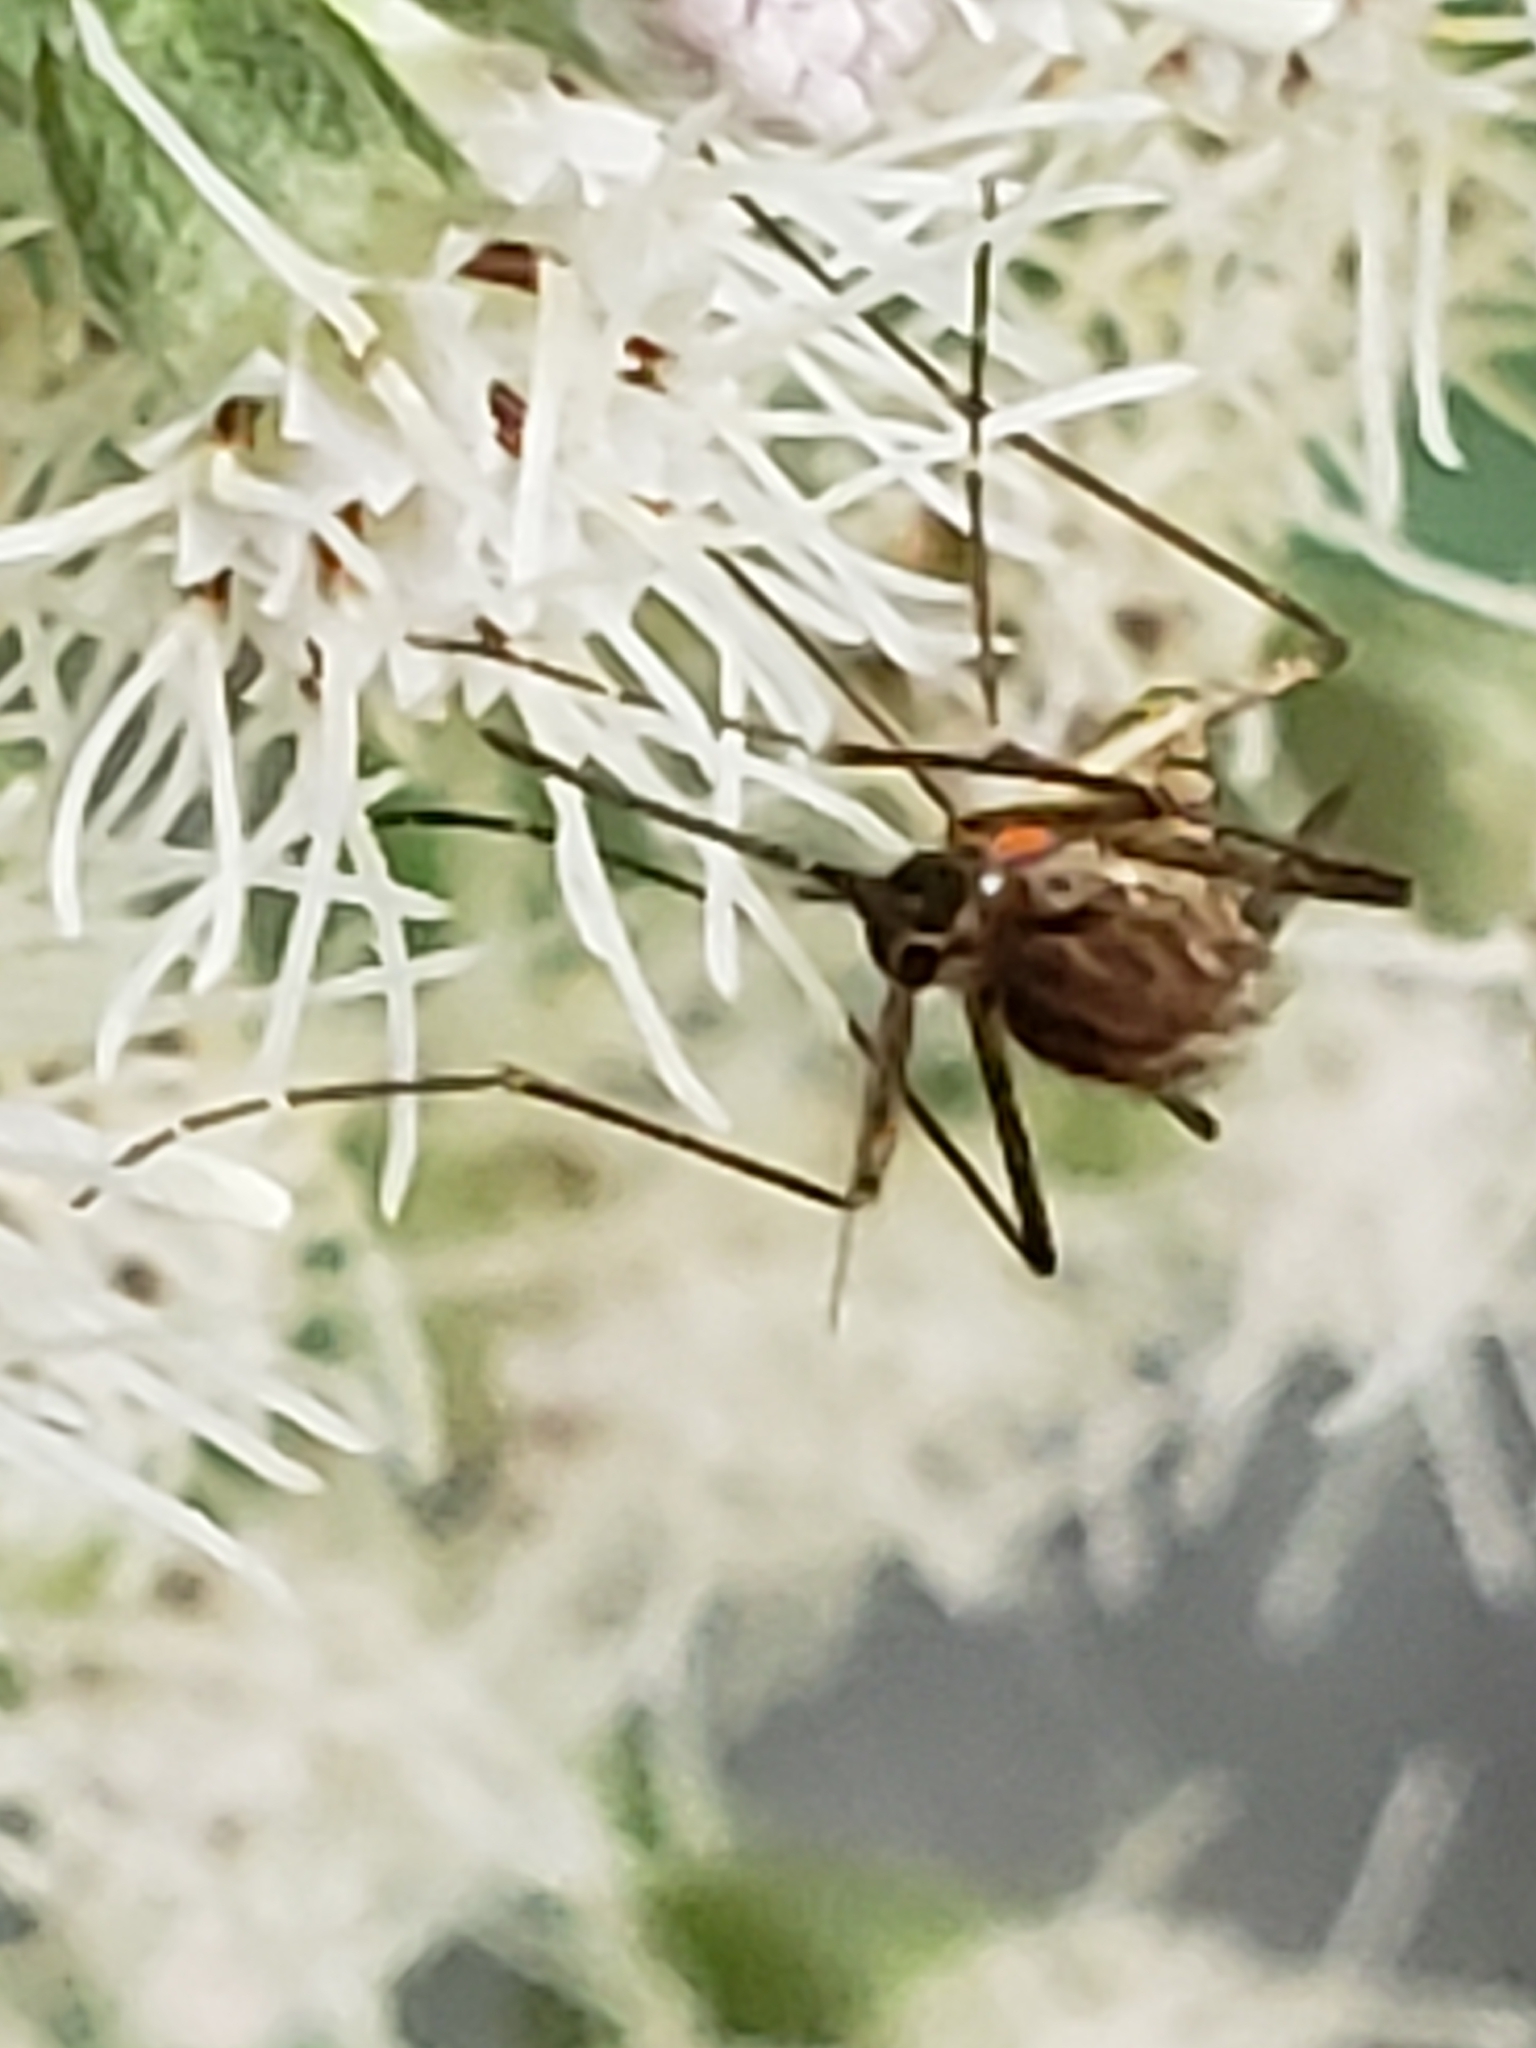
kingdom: Animalia
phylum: Arthropoda
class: Insecta
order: Diptera
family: Culicidae
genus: Aedes
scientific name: Aedes vexans
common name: Inland floodwater mosquito
